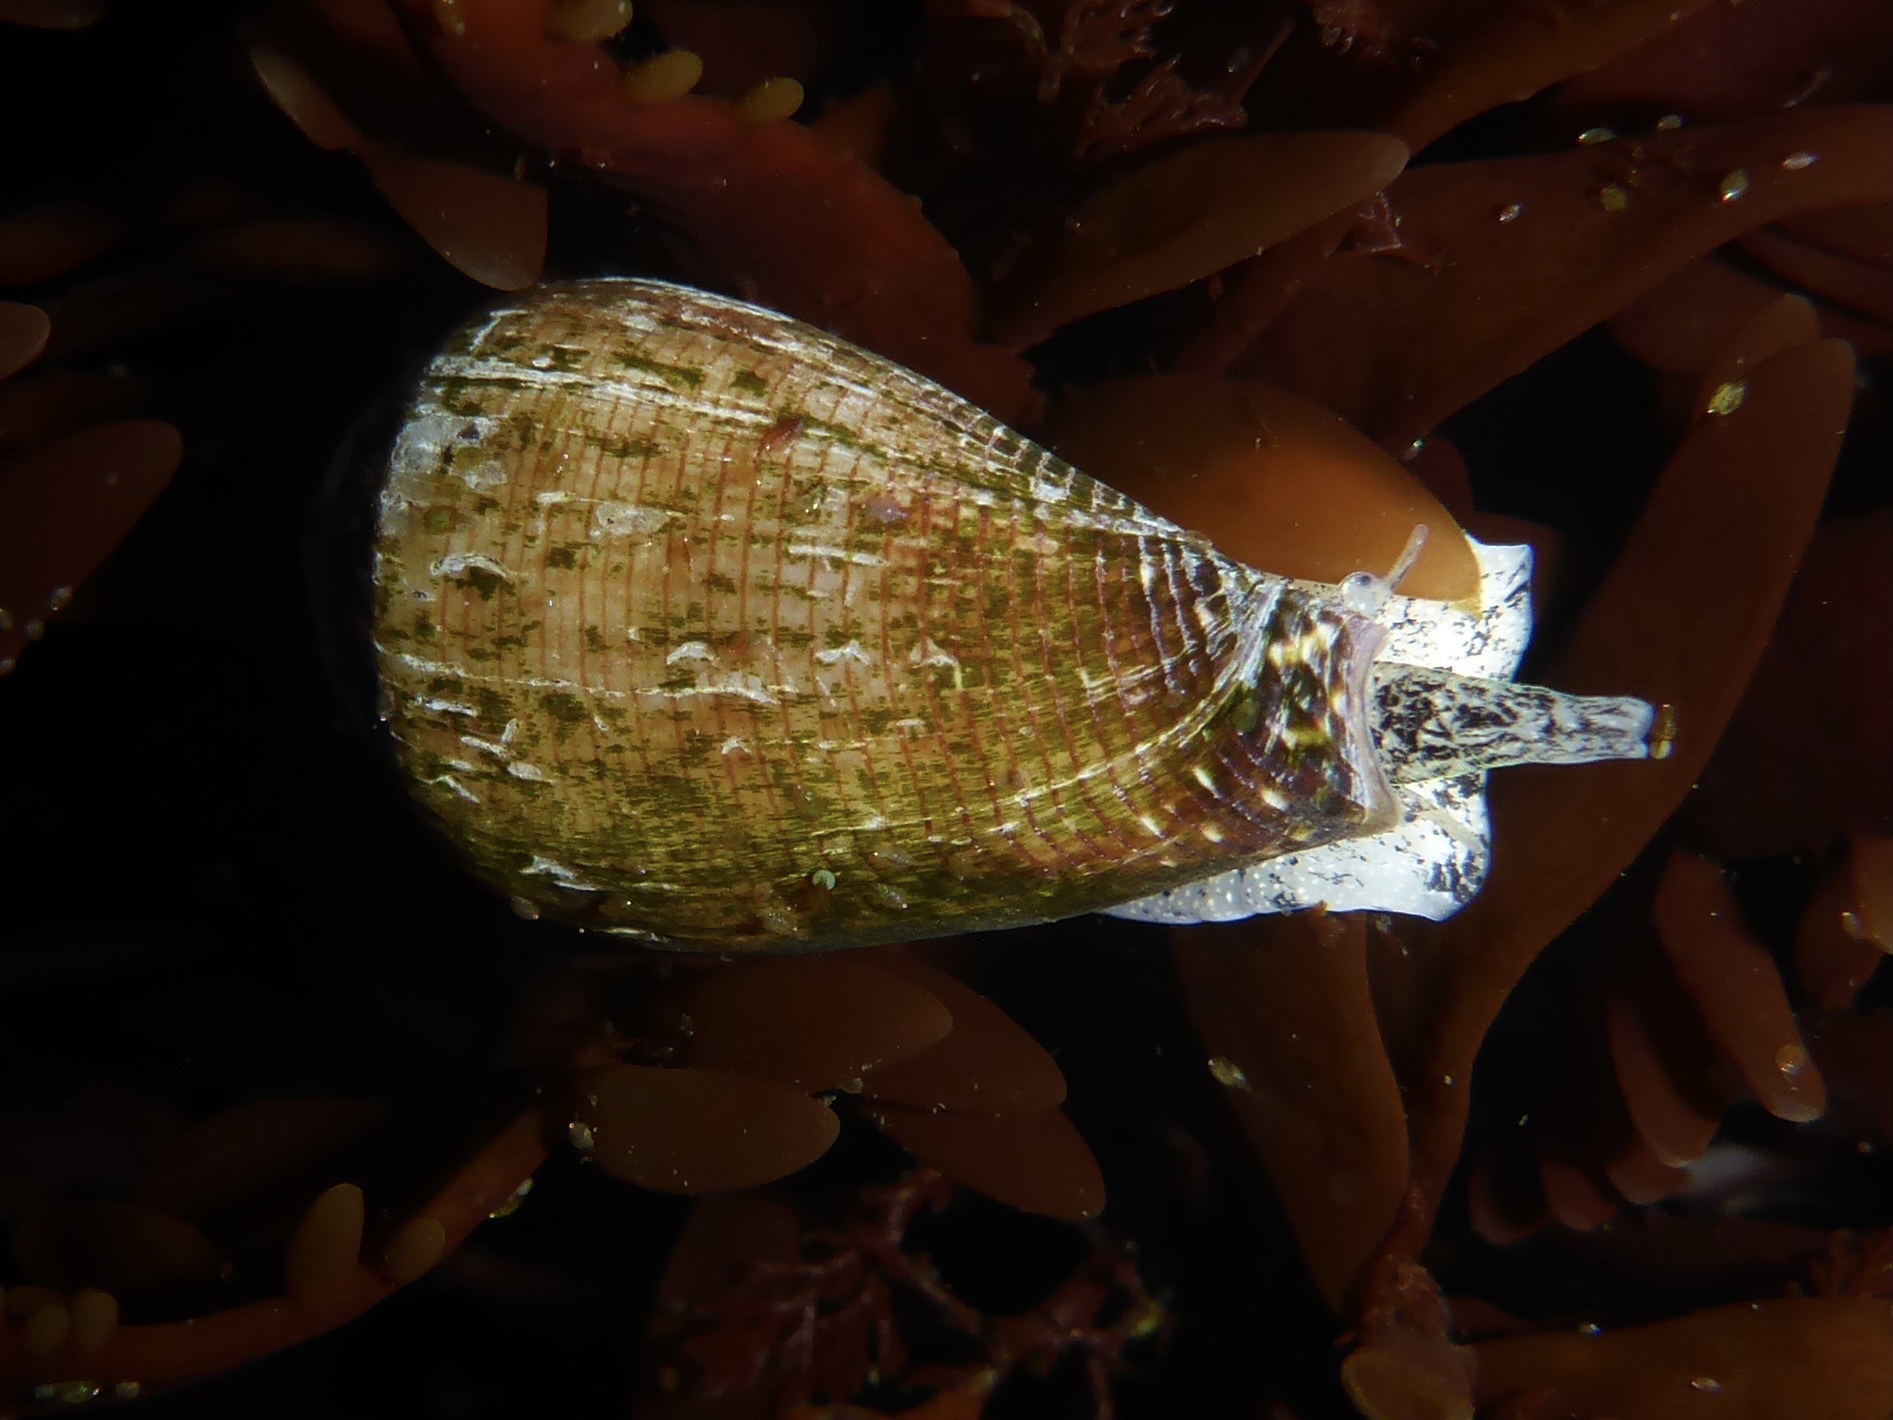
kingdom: Animalia
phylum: Mollusca
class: Gastropoda
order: Neogastropoda
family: Conidae
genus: Californiconus
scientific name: Californiconus californicus
